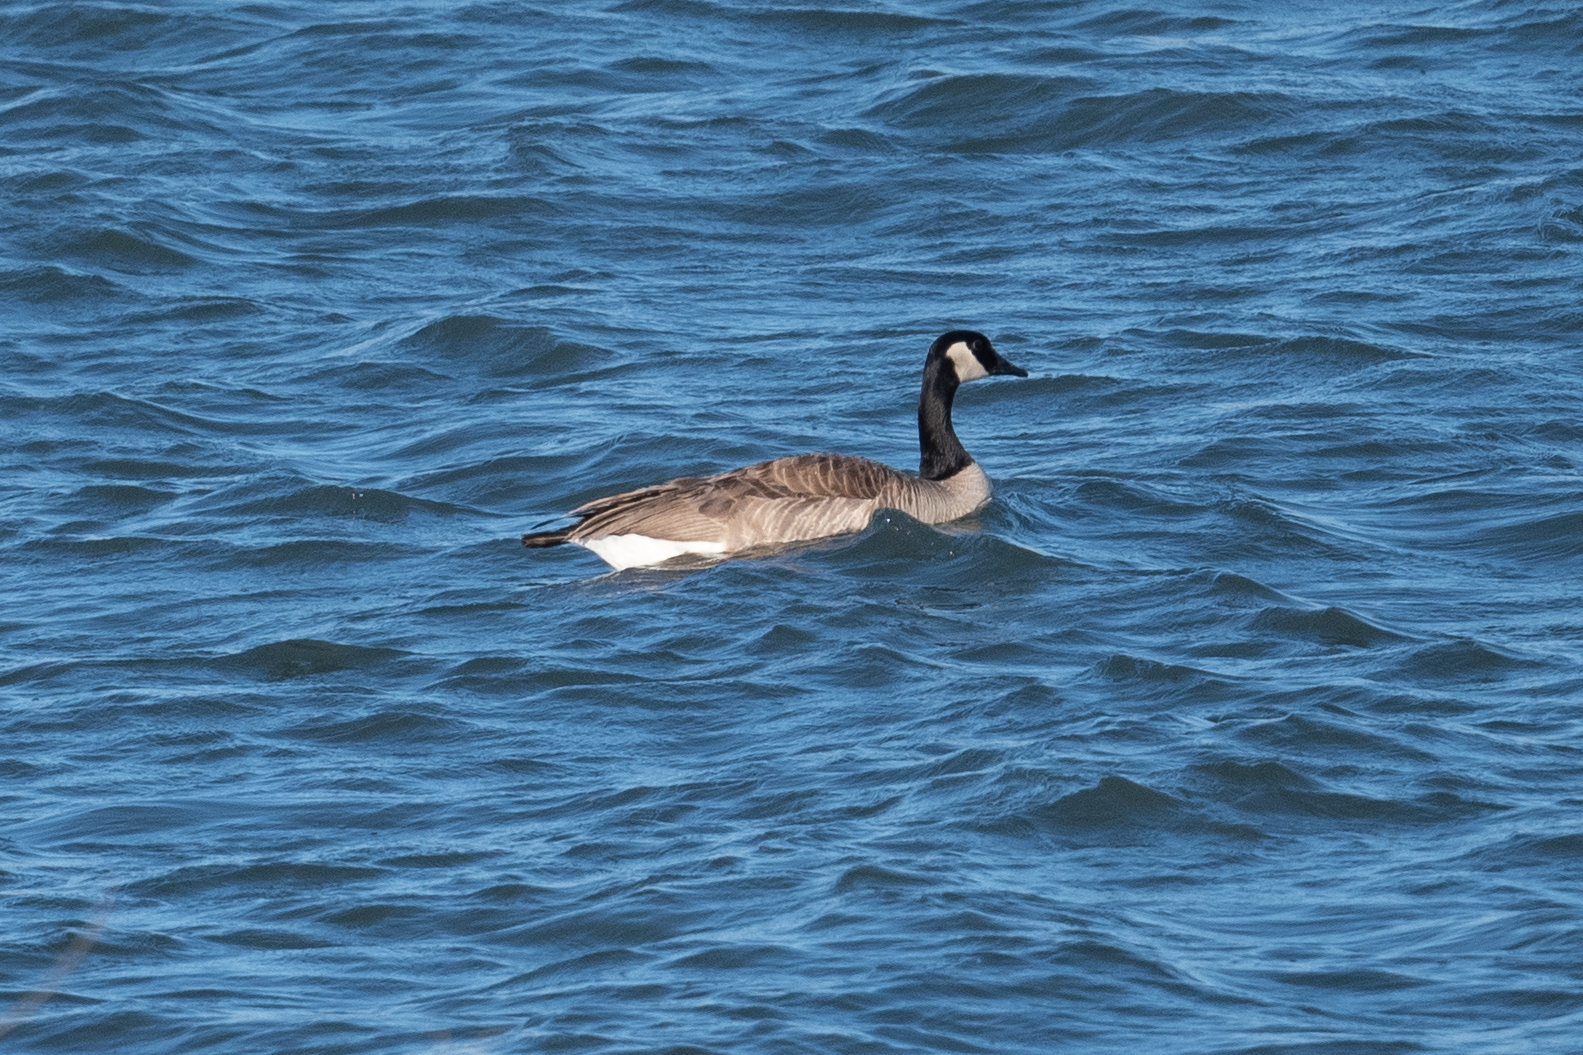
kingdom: Animalia
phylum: Chordata
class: Aves
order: Anseriformes
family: Anatidae
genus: Branta
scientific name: Branta canadensis
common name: Canada goose
